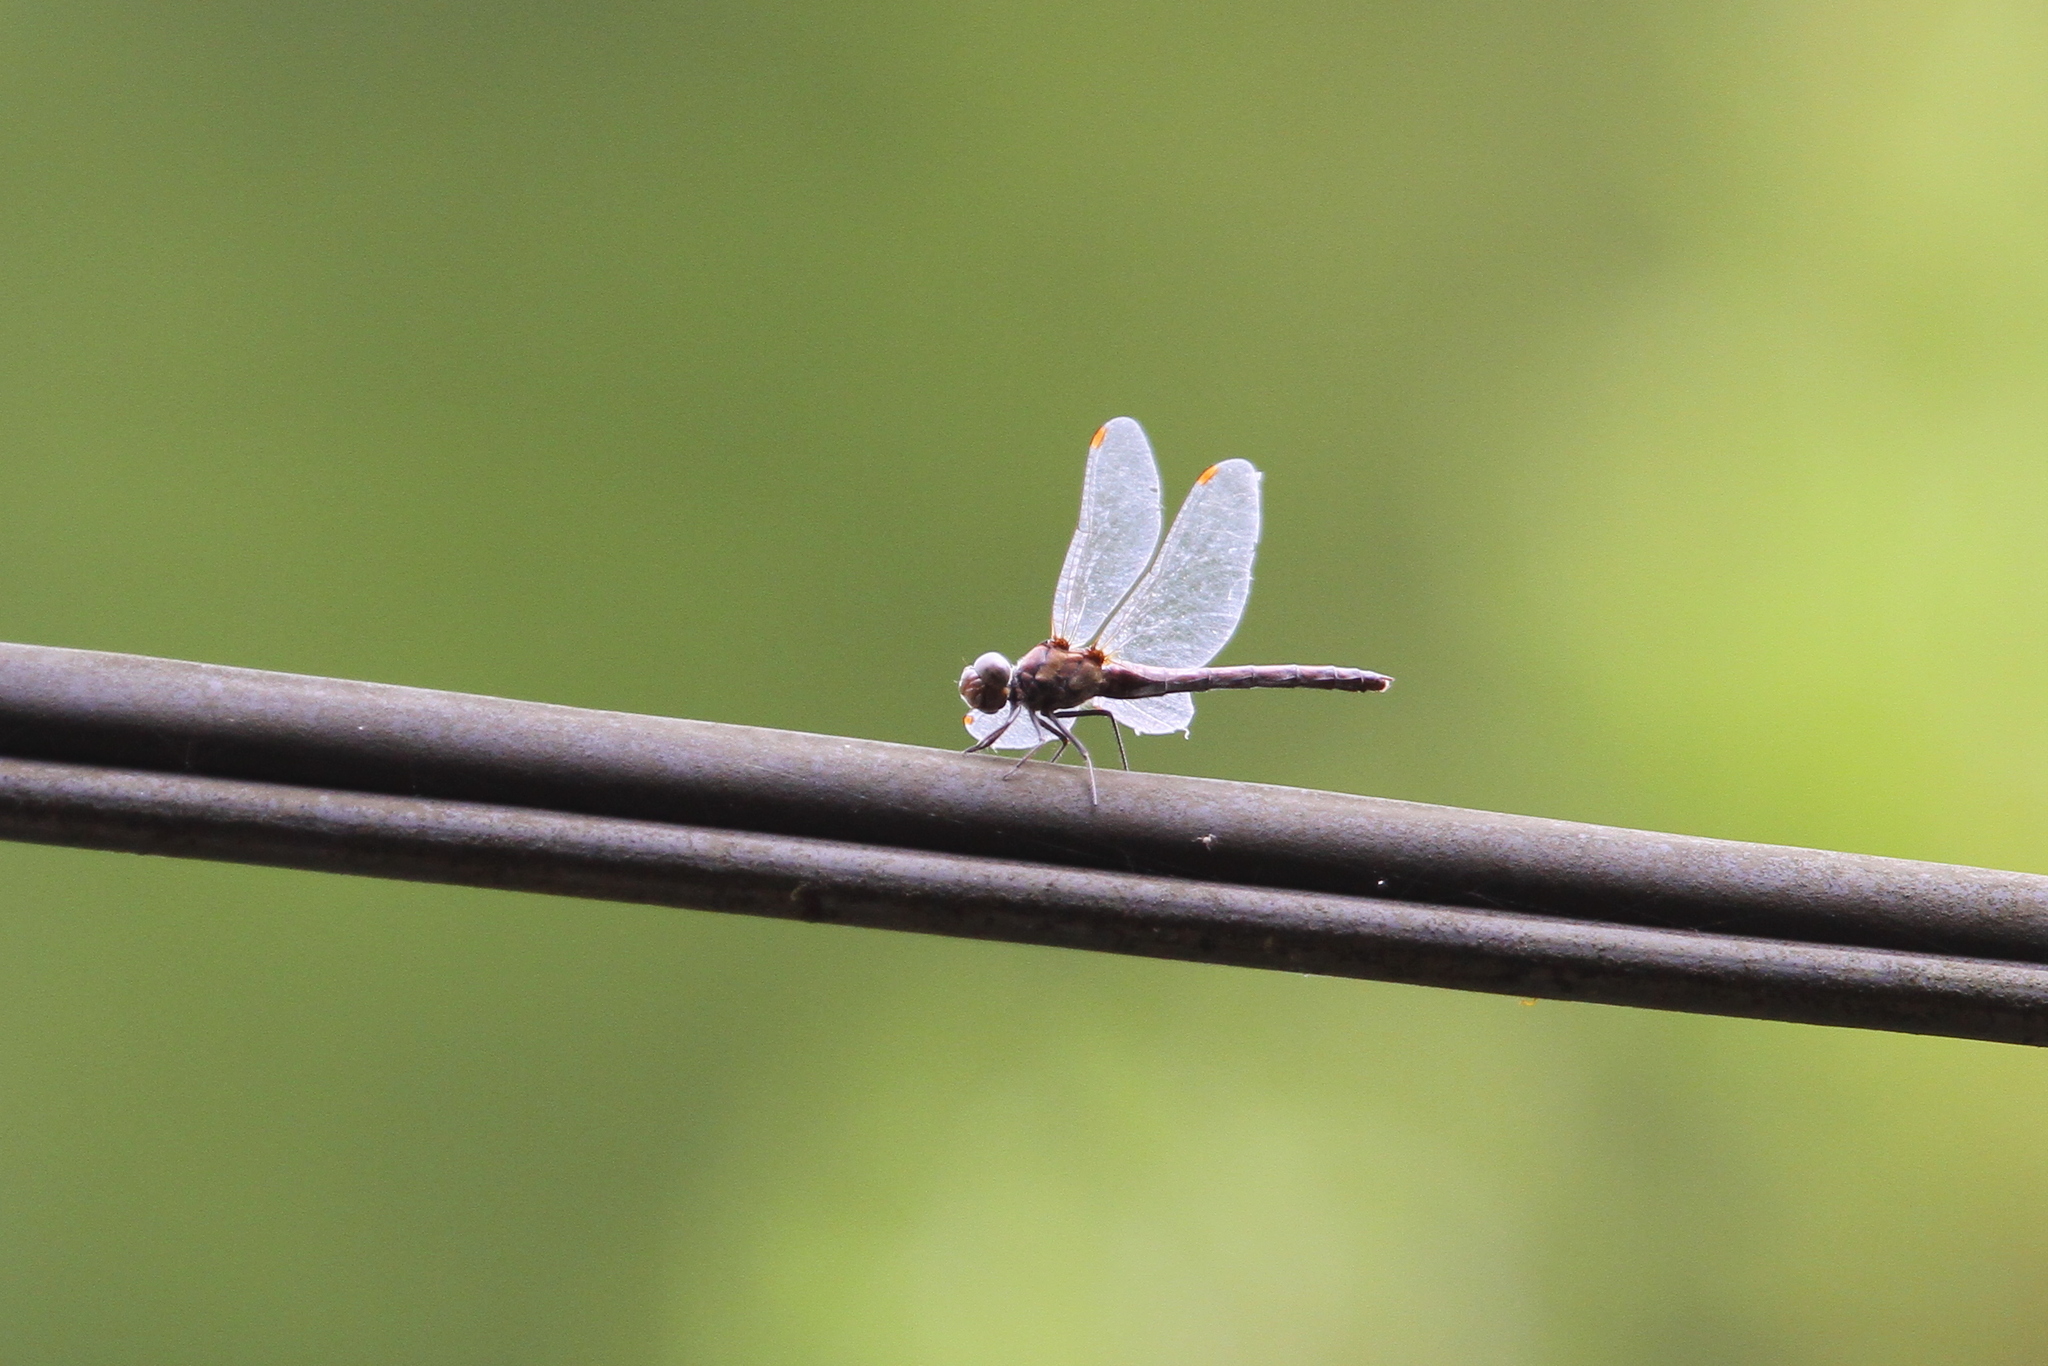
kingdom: Animalia
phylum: Arthropoda
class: Insecta
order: Odonata
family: Libellulidae
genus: Sympetrum
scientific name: Sympetrum nigrifemur
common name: Island darter
